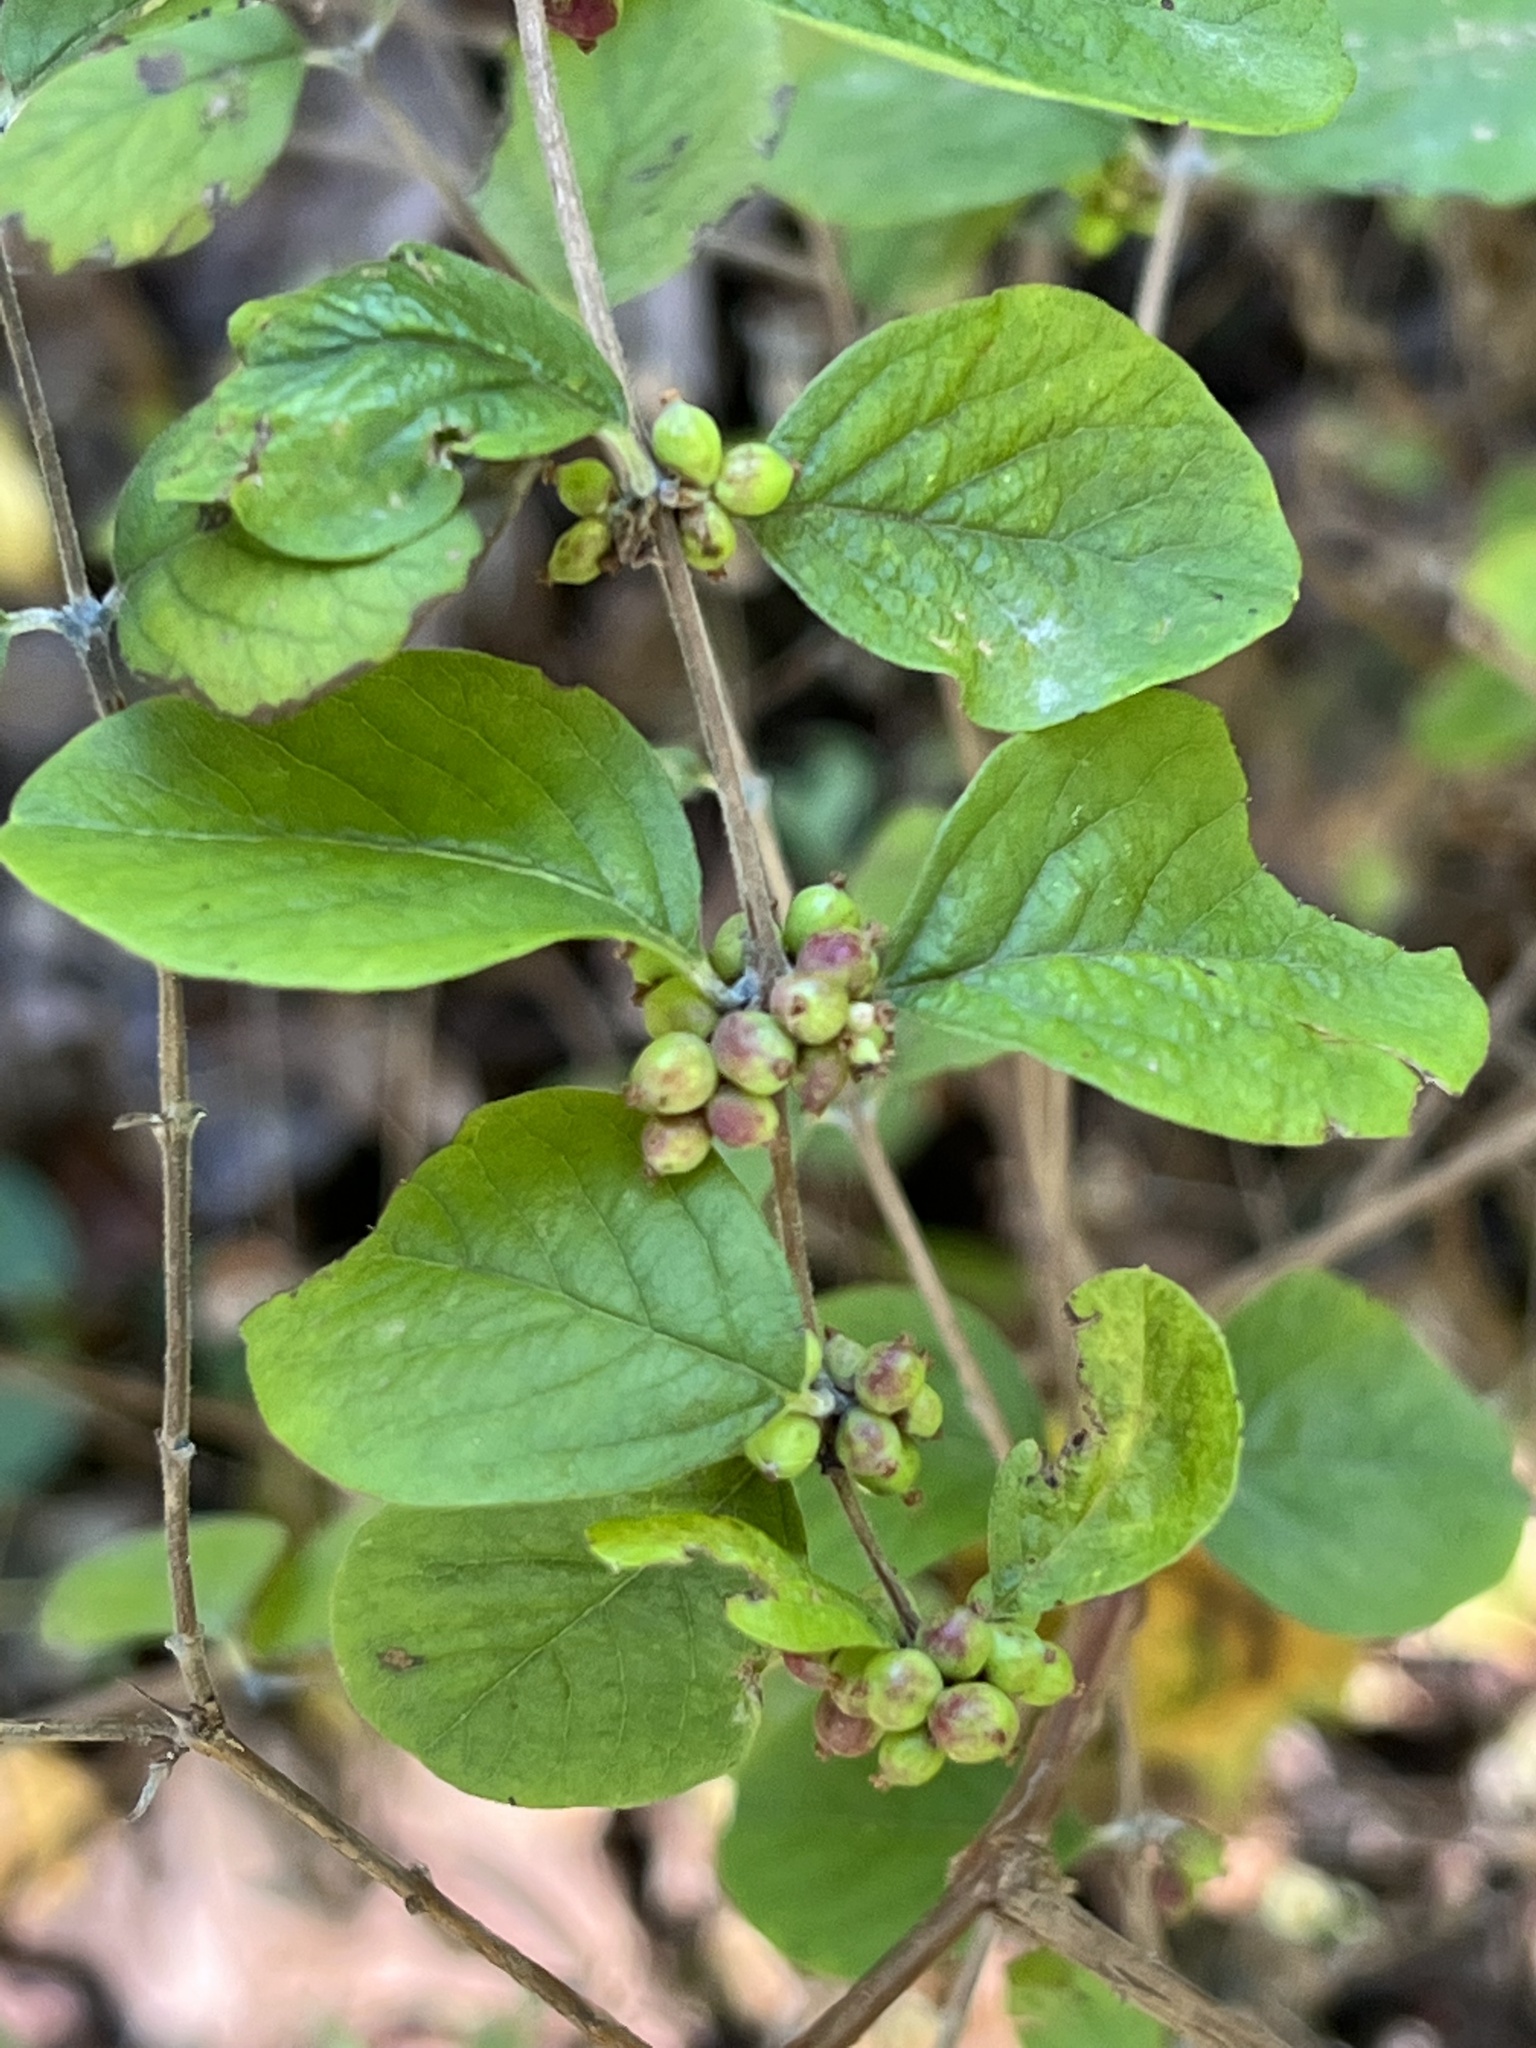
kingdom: Plantae
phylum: Tracheophyta
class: Magnoliopsida
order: Dipsacales
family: Caprifoliaceae
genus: Symphoricarpos
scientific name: Symphoricarpos orbiculatus
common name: Coralberry
